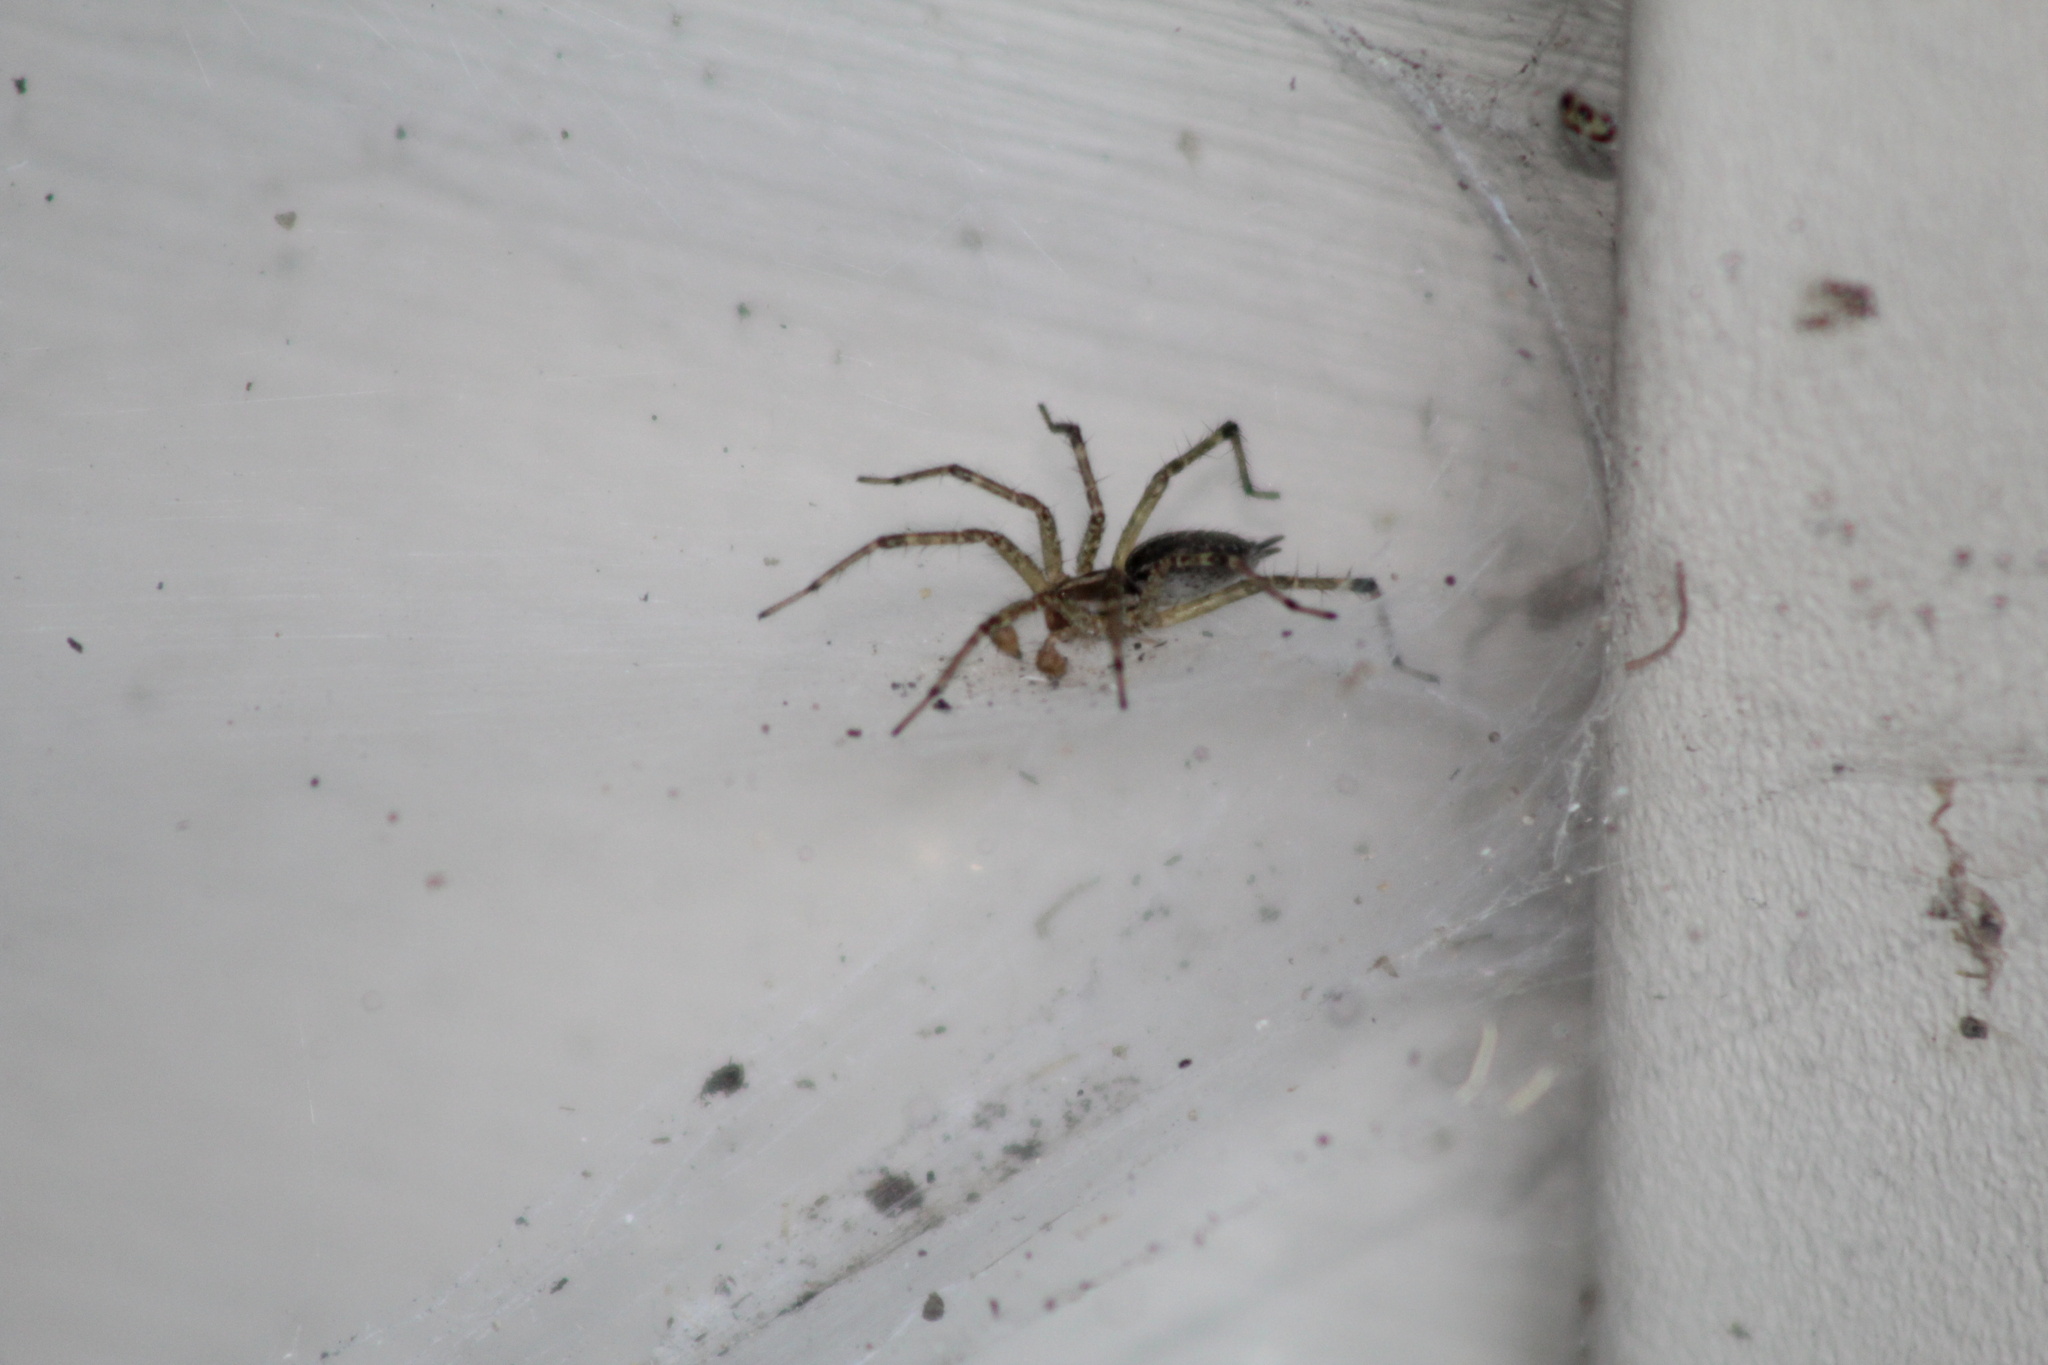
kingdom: Animalia
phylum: Arthropoda
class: Arachnida
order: Araneae
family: Agelenidae
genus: Agelenopsis
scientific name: Agelenopsis
